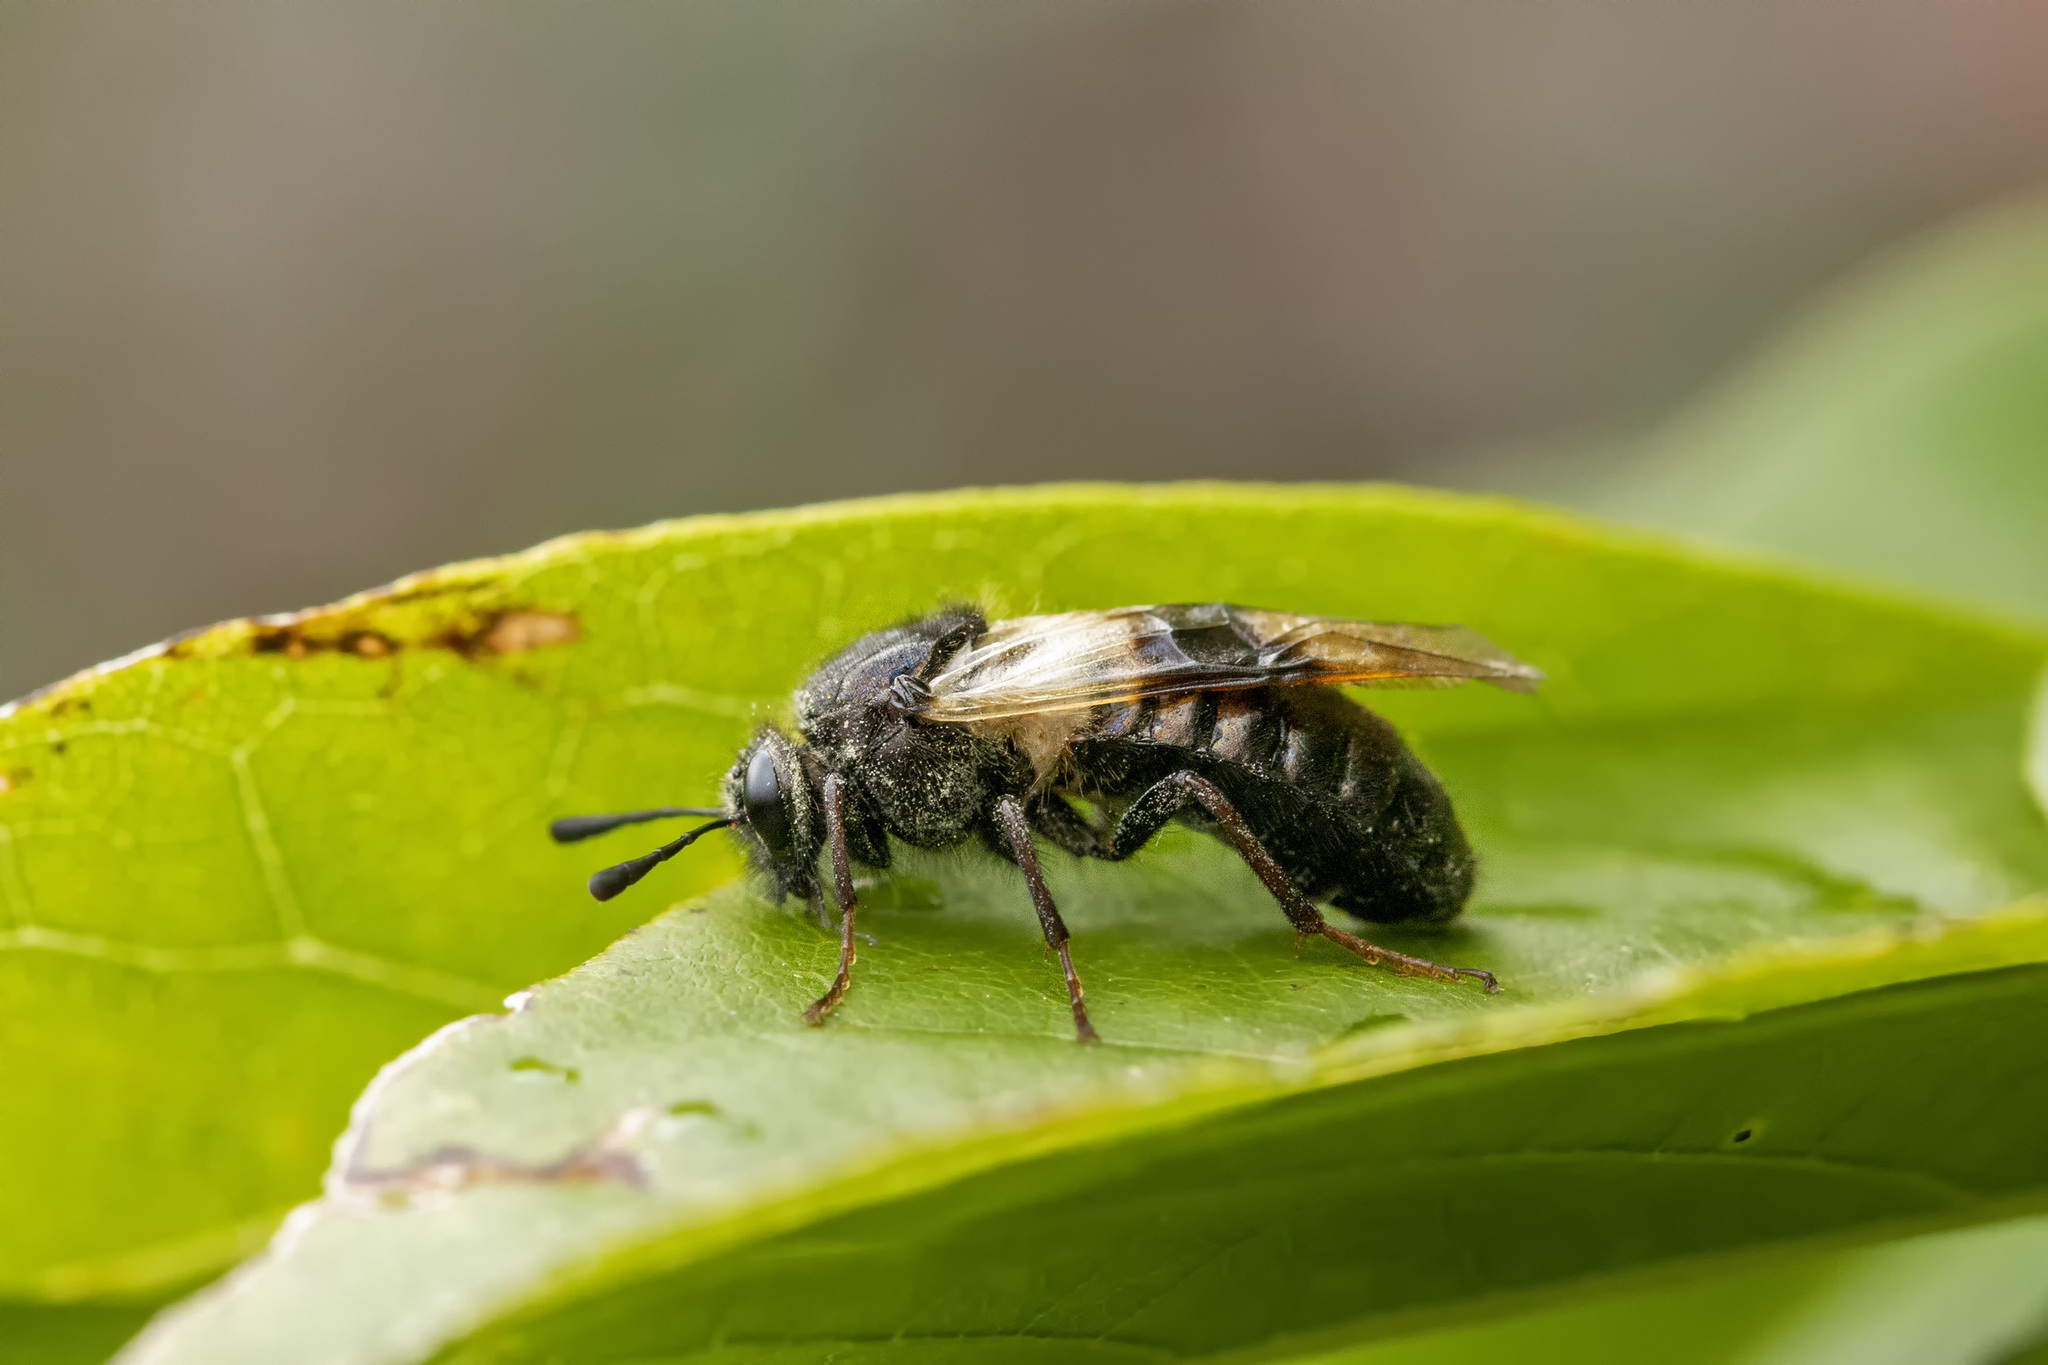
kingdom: Animalia
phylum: Arthropoda
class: Insecta
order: Hymenoptera
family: Cimbicidae
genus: Abia
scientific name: Abia fasciata
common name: Banded honeysuckle sawfly
